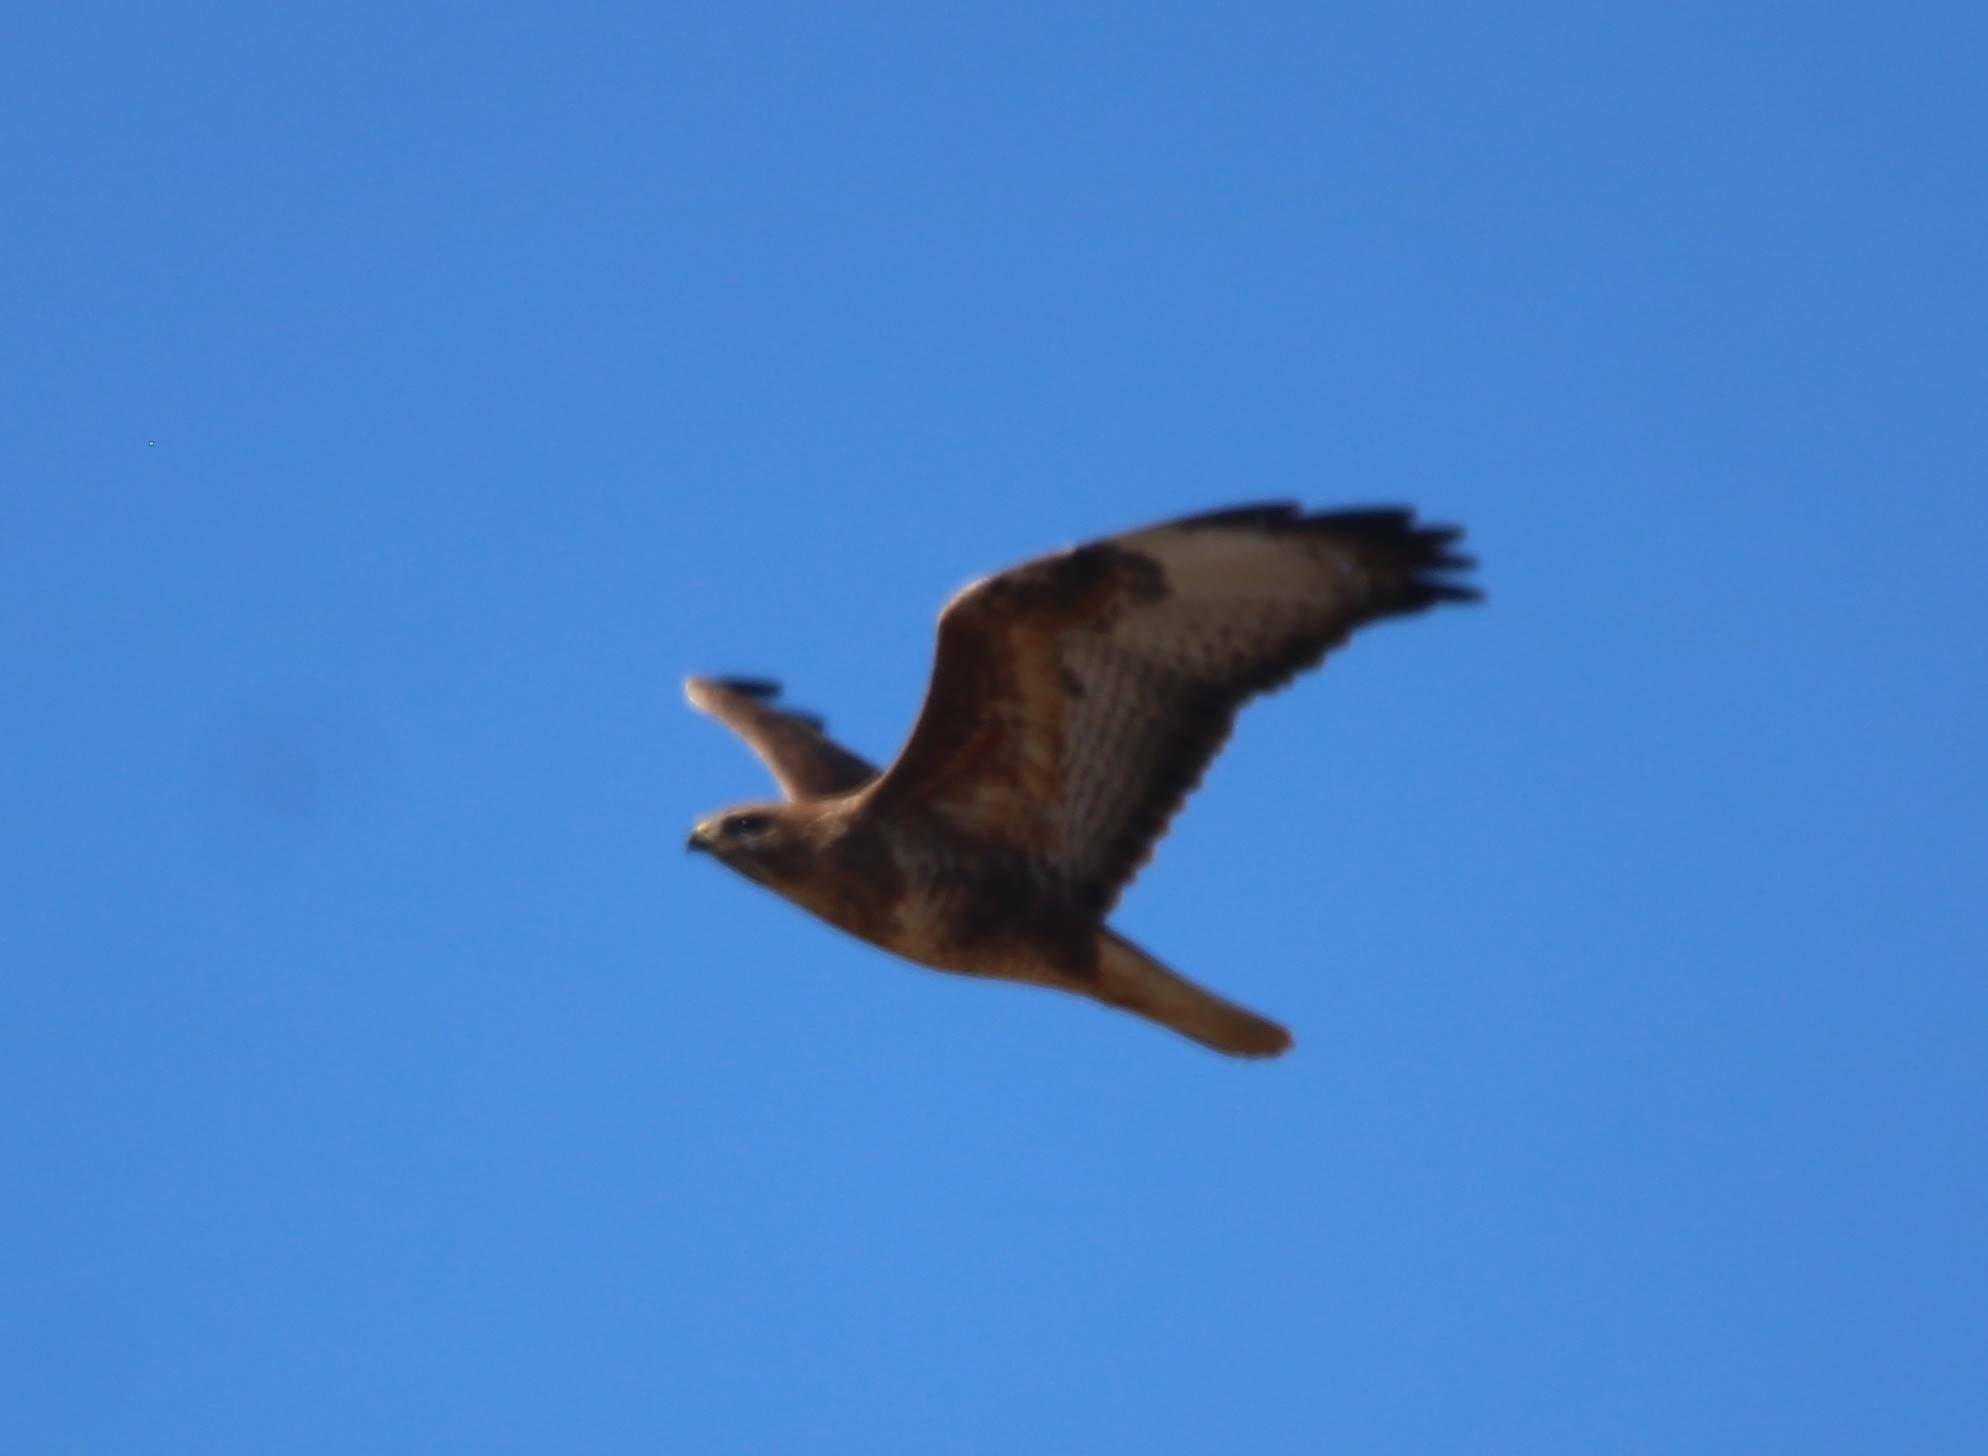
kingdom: Animalia
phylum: Chordata
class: Aves
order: Accipitriformes
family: Accipitridae
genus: Buteo
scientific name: Buteo rufinus
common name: Long-legged buzzard
